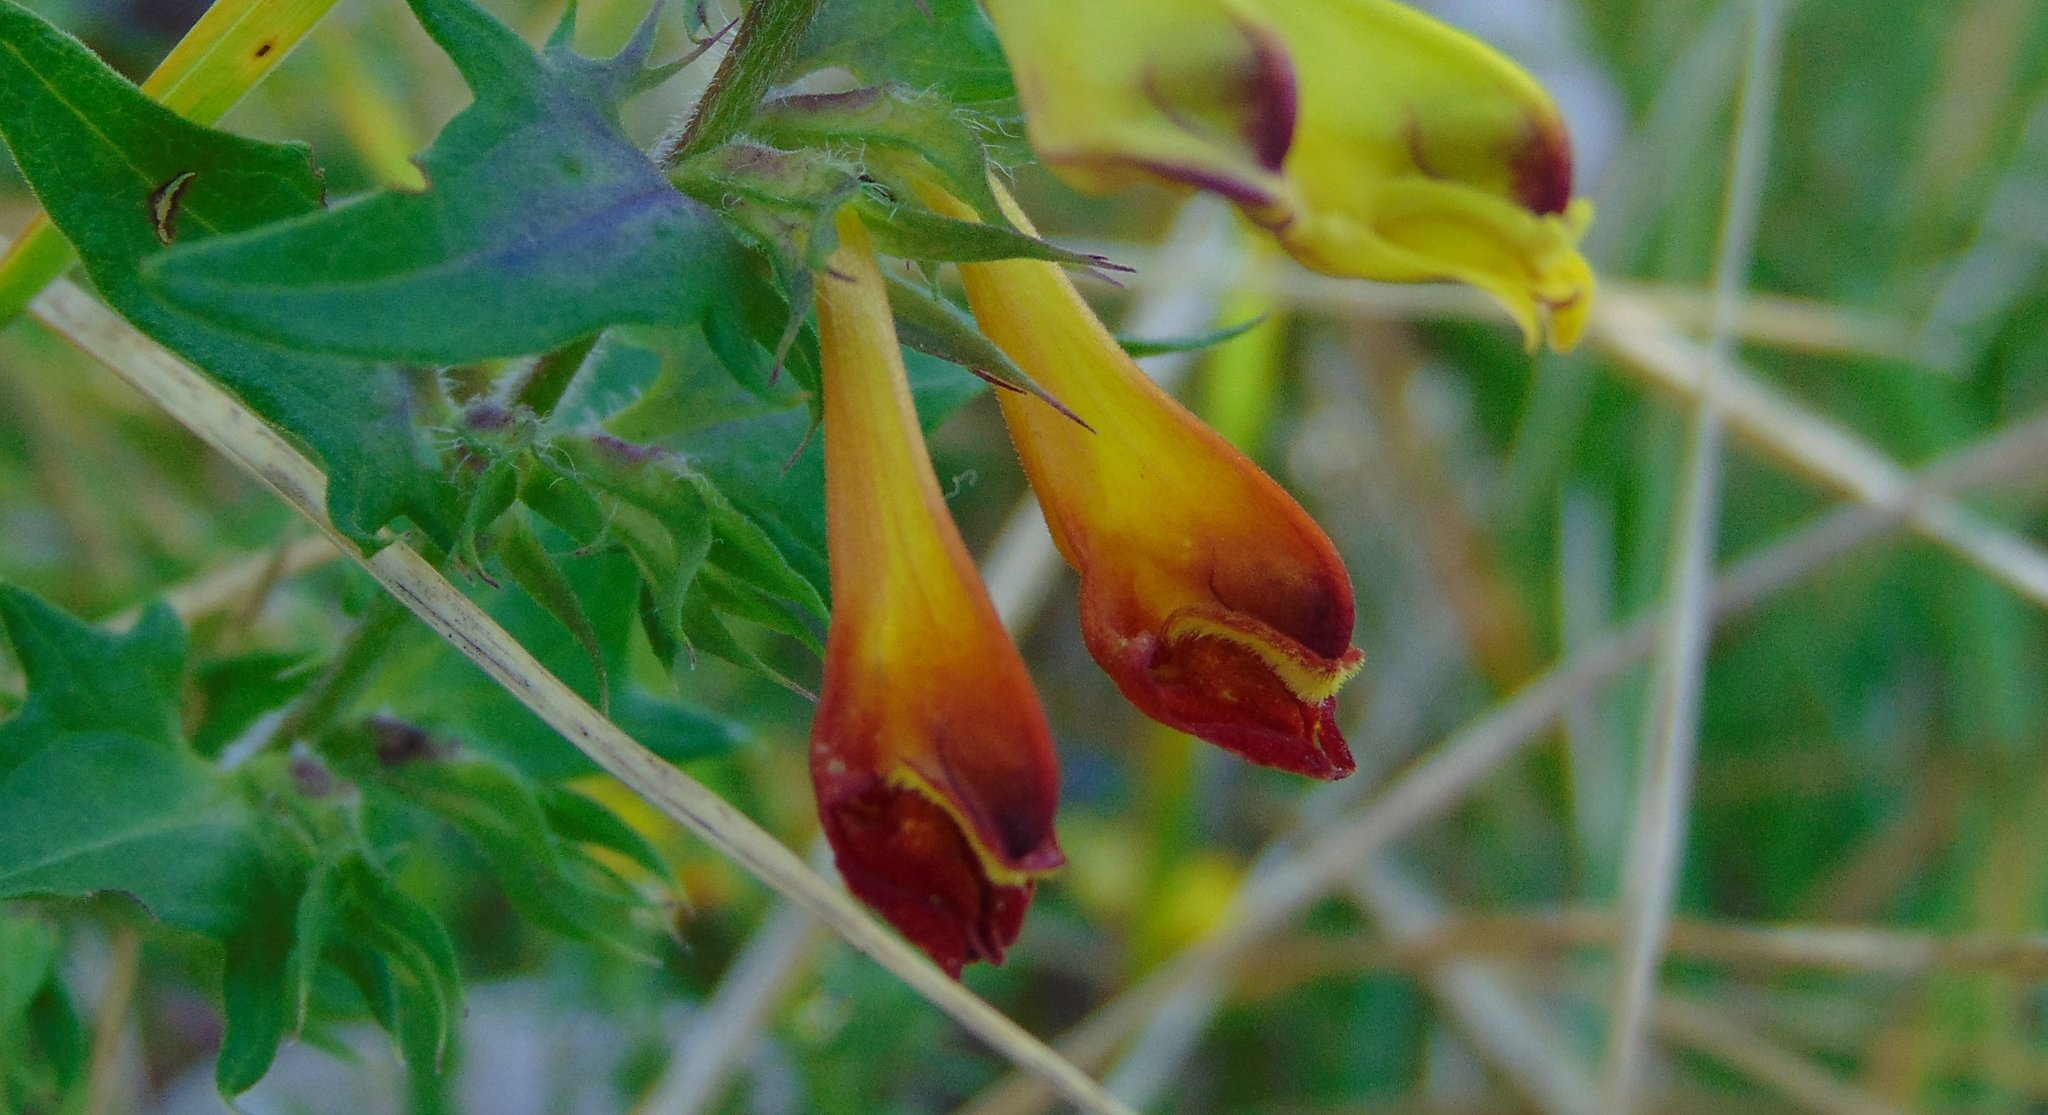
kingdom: Plantae
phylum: Tracheophyta
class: Magnoliopsida
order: Lamiales
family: Orobanchaceae
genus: Melampyrum
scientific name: Melampyrum nemorosum
